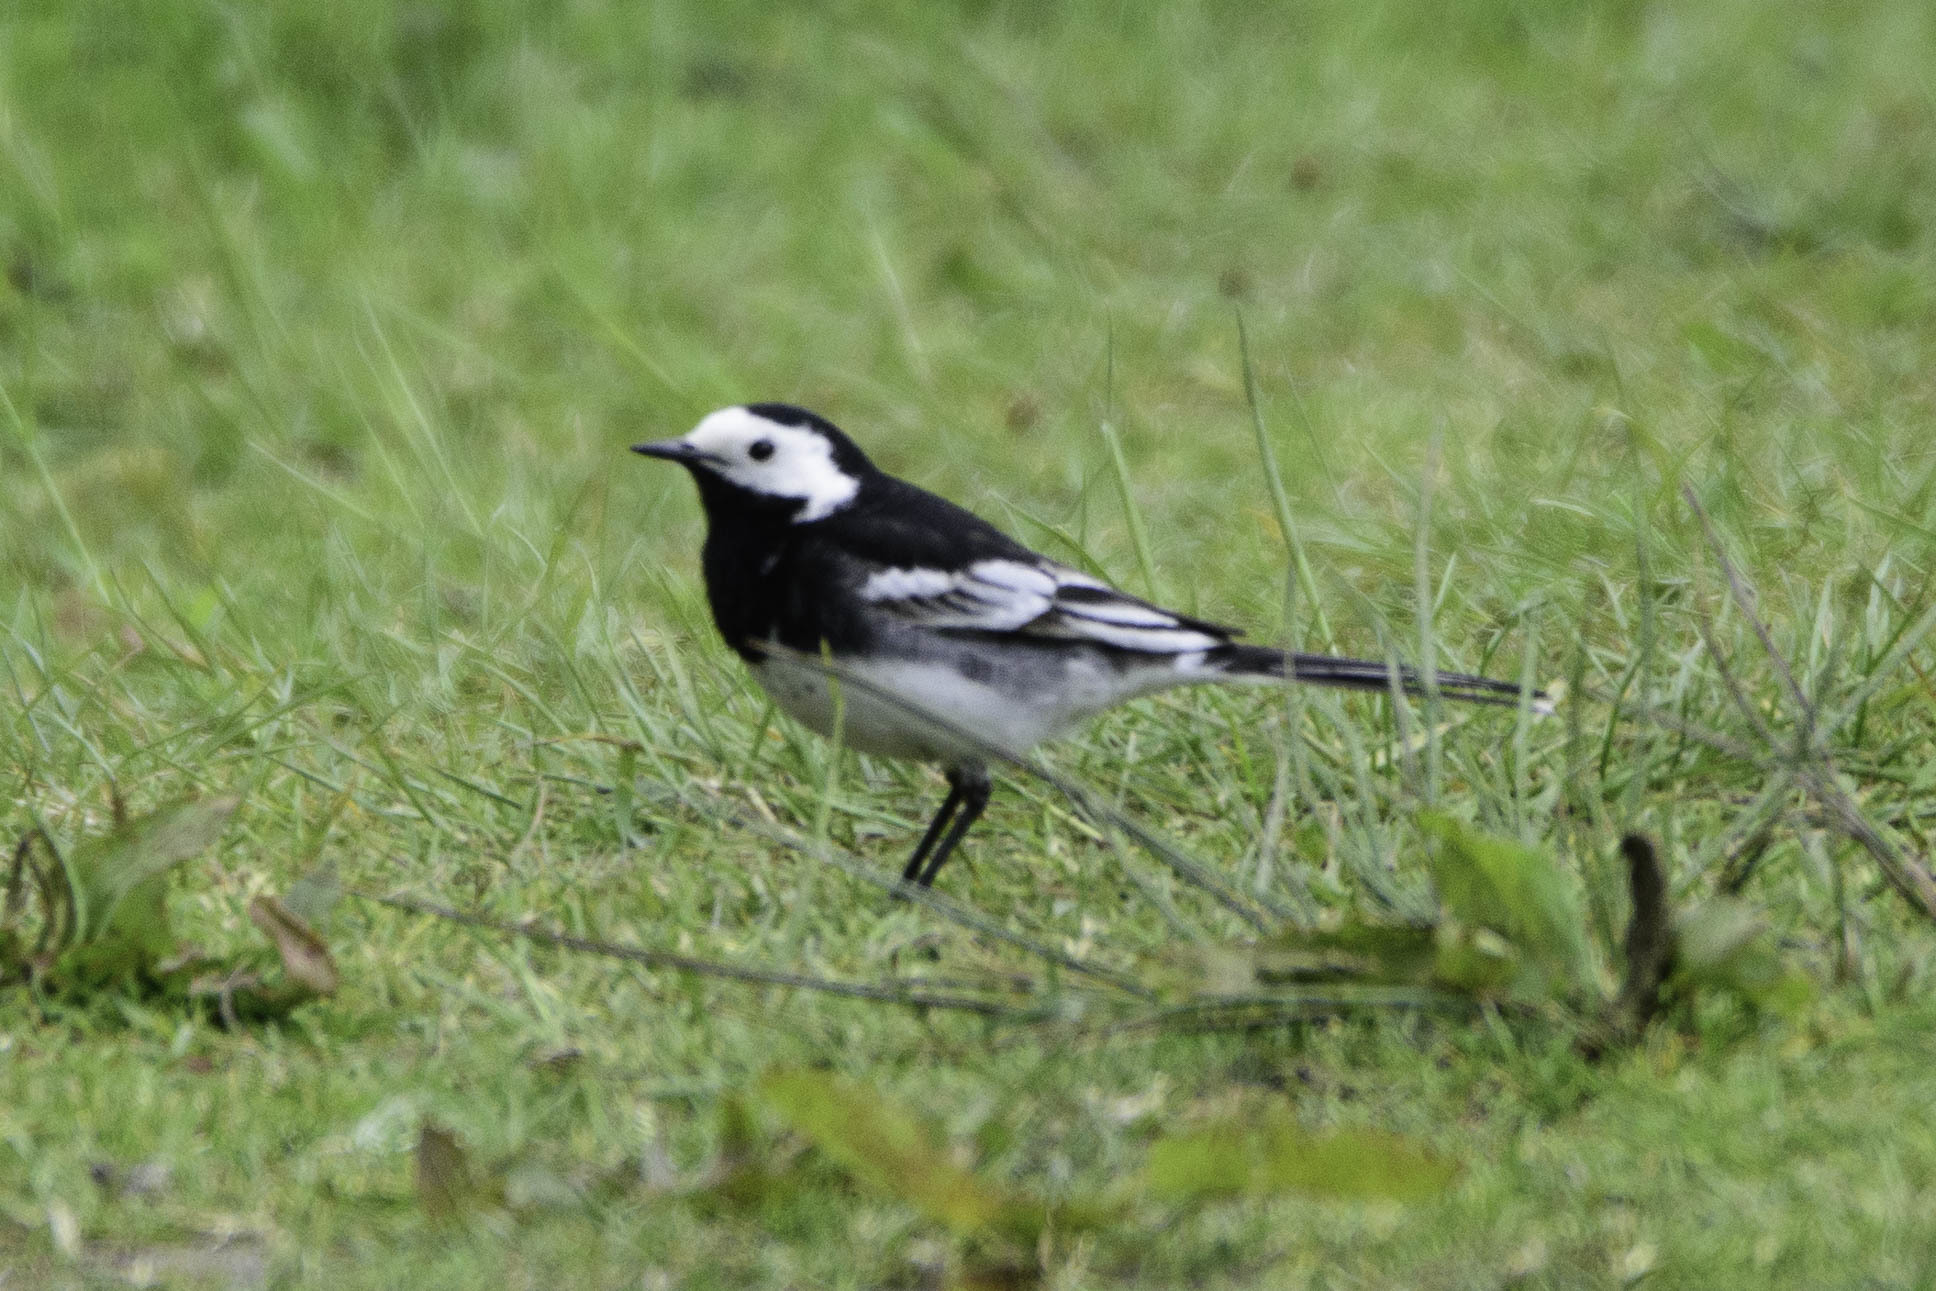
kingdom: Animalia
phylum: Chordata
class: Aves
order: Passeriformes
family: Motacillidae
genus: Motacilla
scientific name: Motacilla alba
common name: White wagtail
